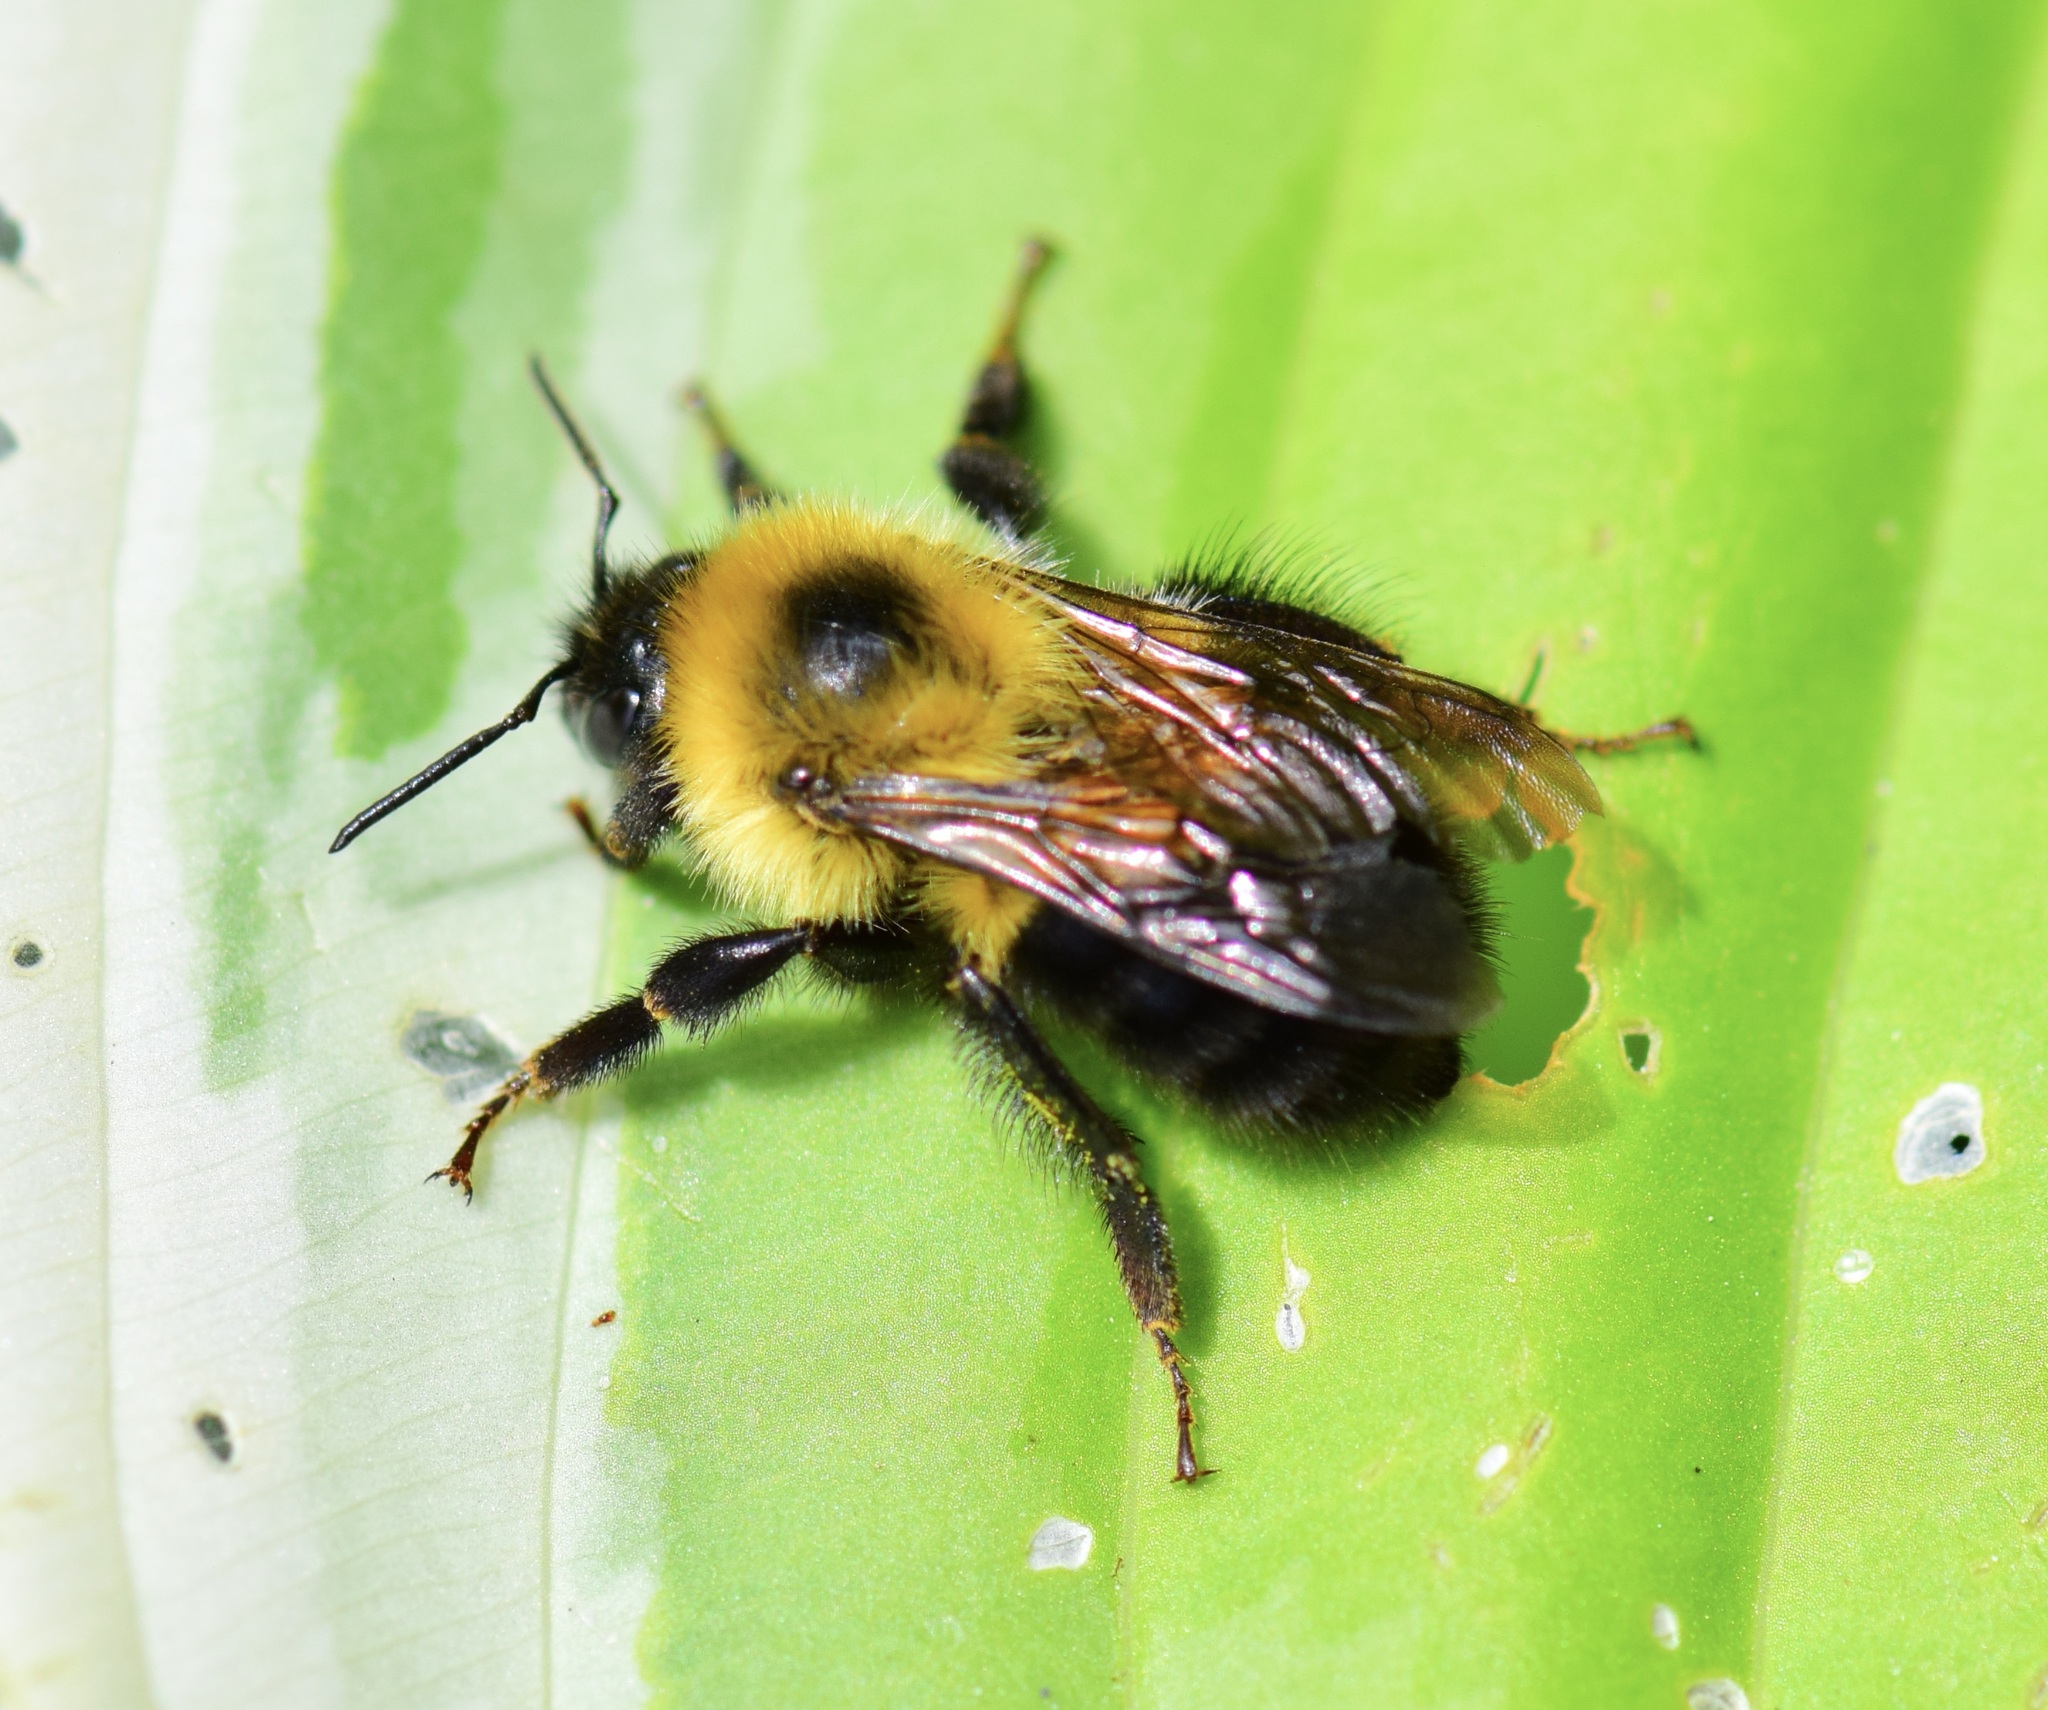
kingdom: Animalia
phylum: Arthropoda
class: Insecta
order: Hymenoptera
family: Apidae
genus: Bombus
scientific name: Bombus bimaculatus
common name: Two-spotted bumble bee
